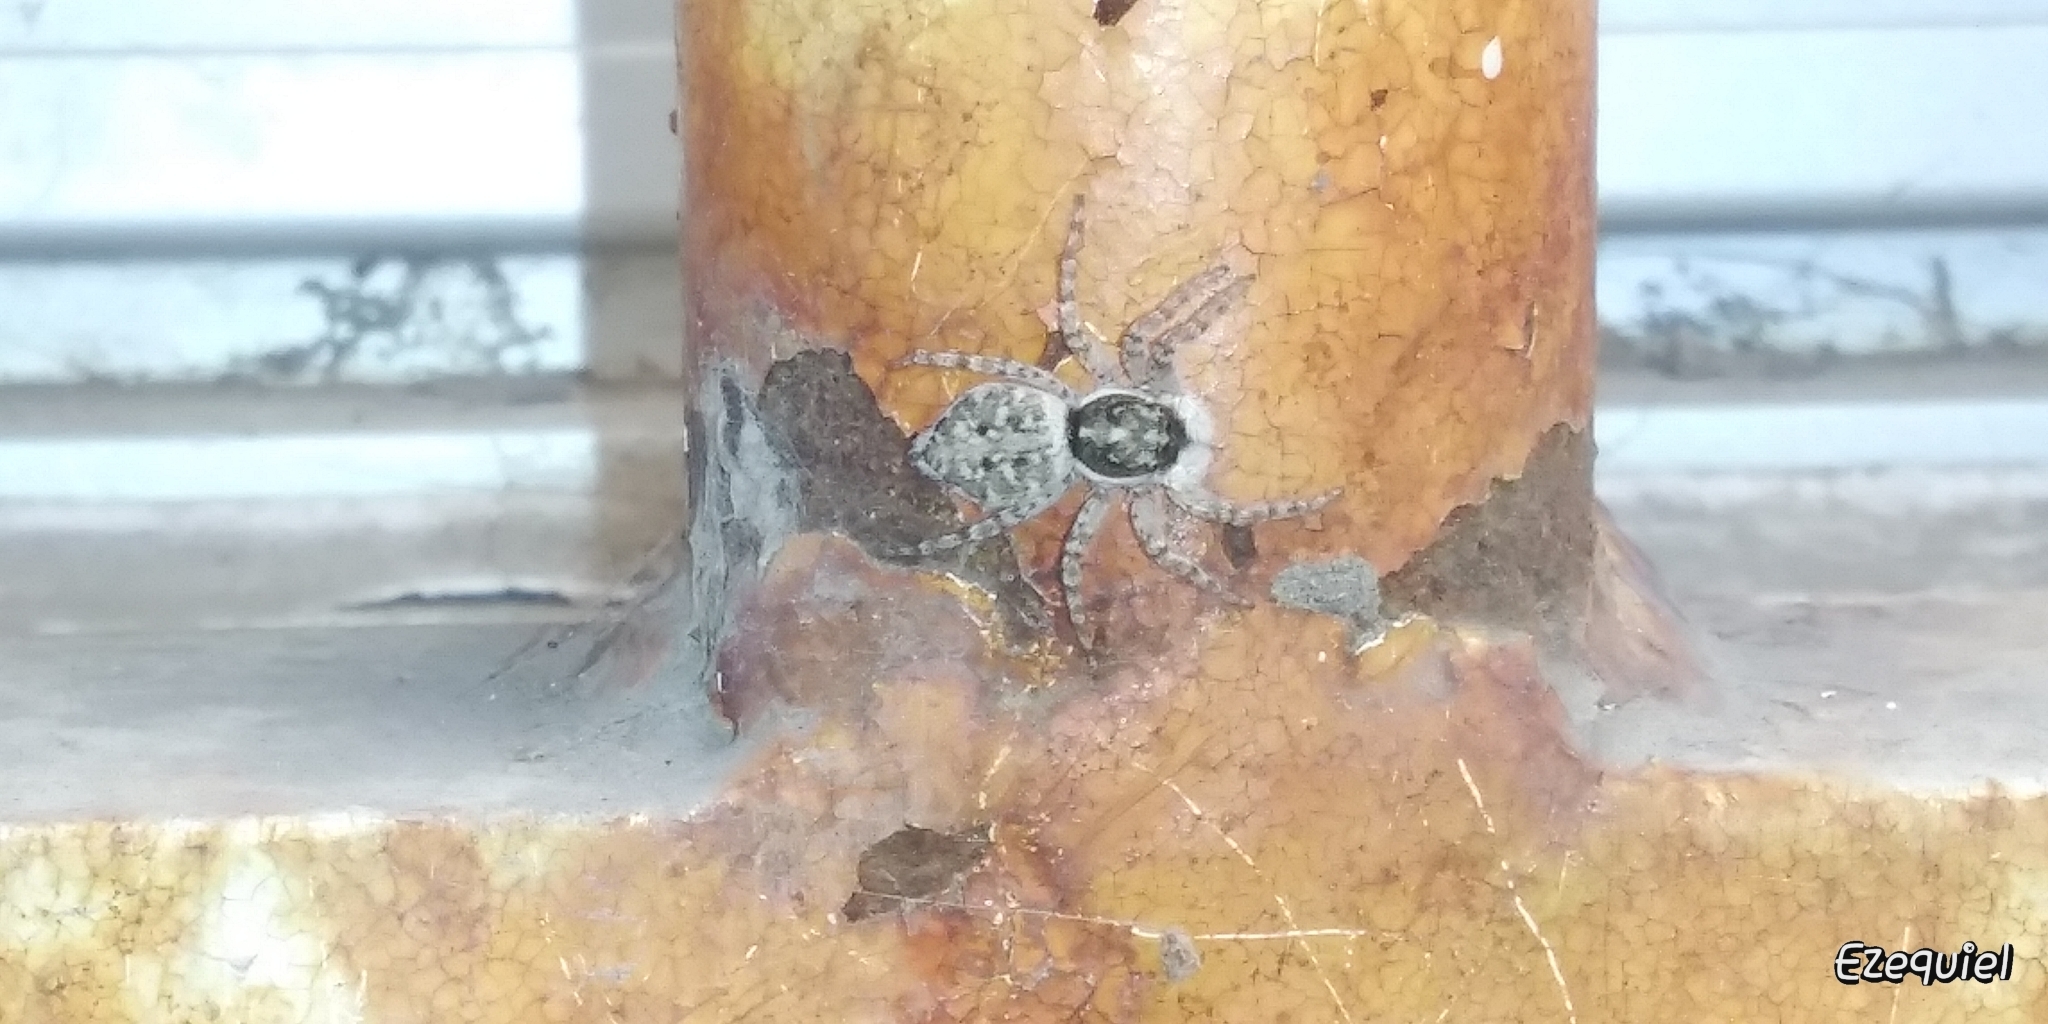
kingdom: Animalia
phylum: Arthropoda
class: Arachnida
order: Araneae
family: Salticidae
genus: Menemerus
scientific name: Menemerus semilimbatus
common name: Jumping spider
